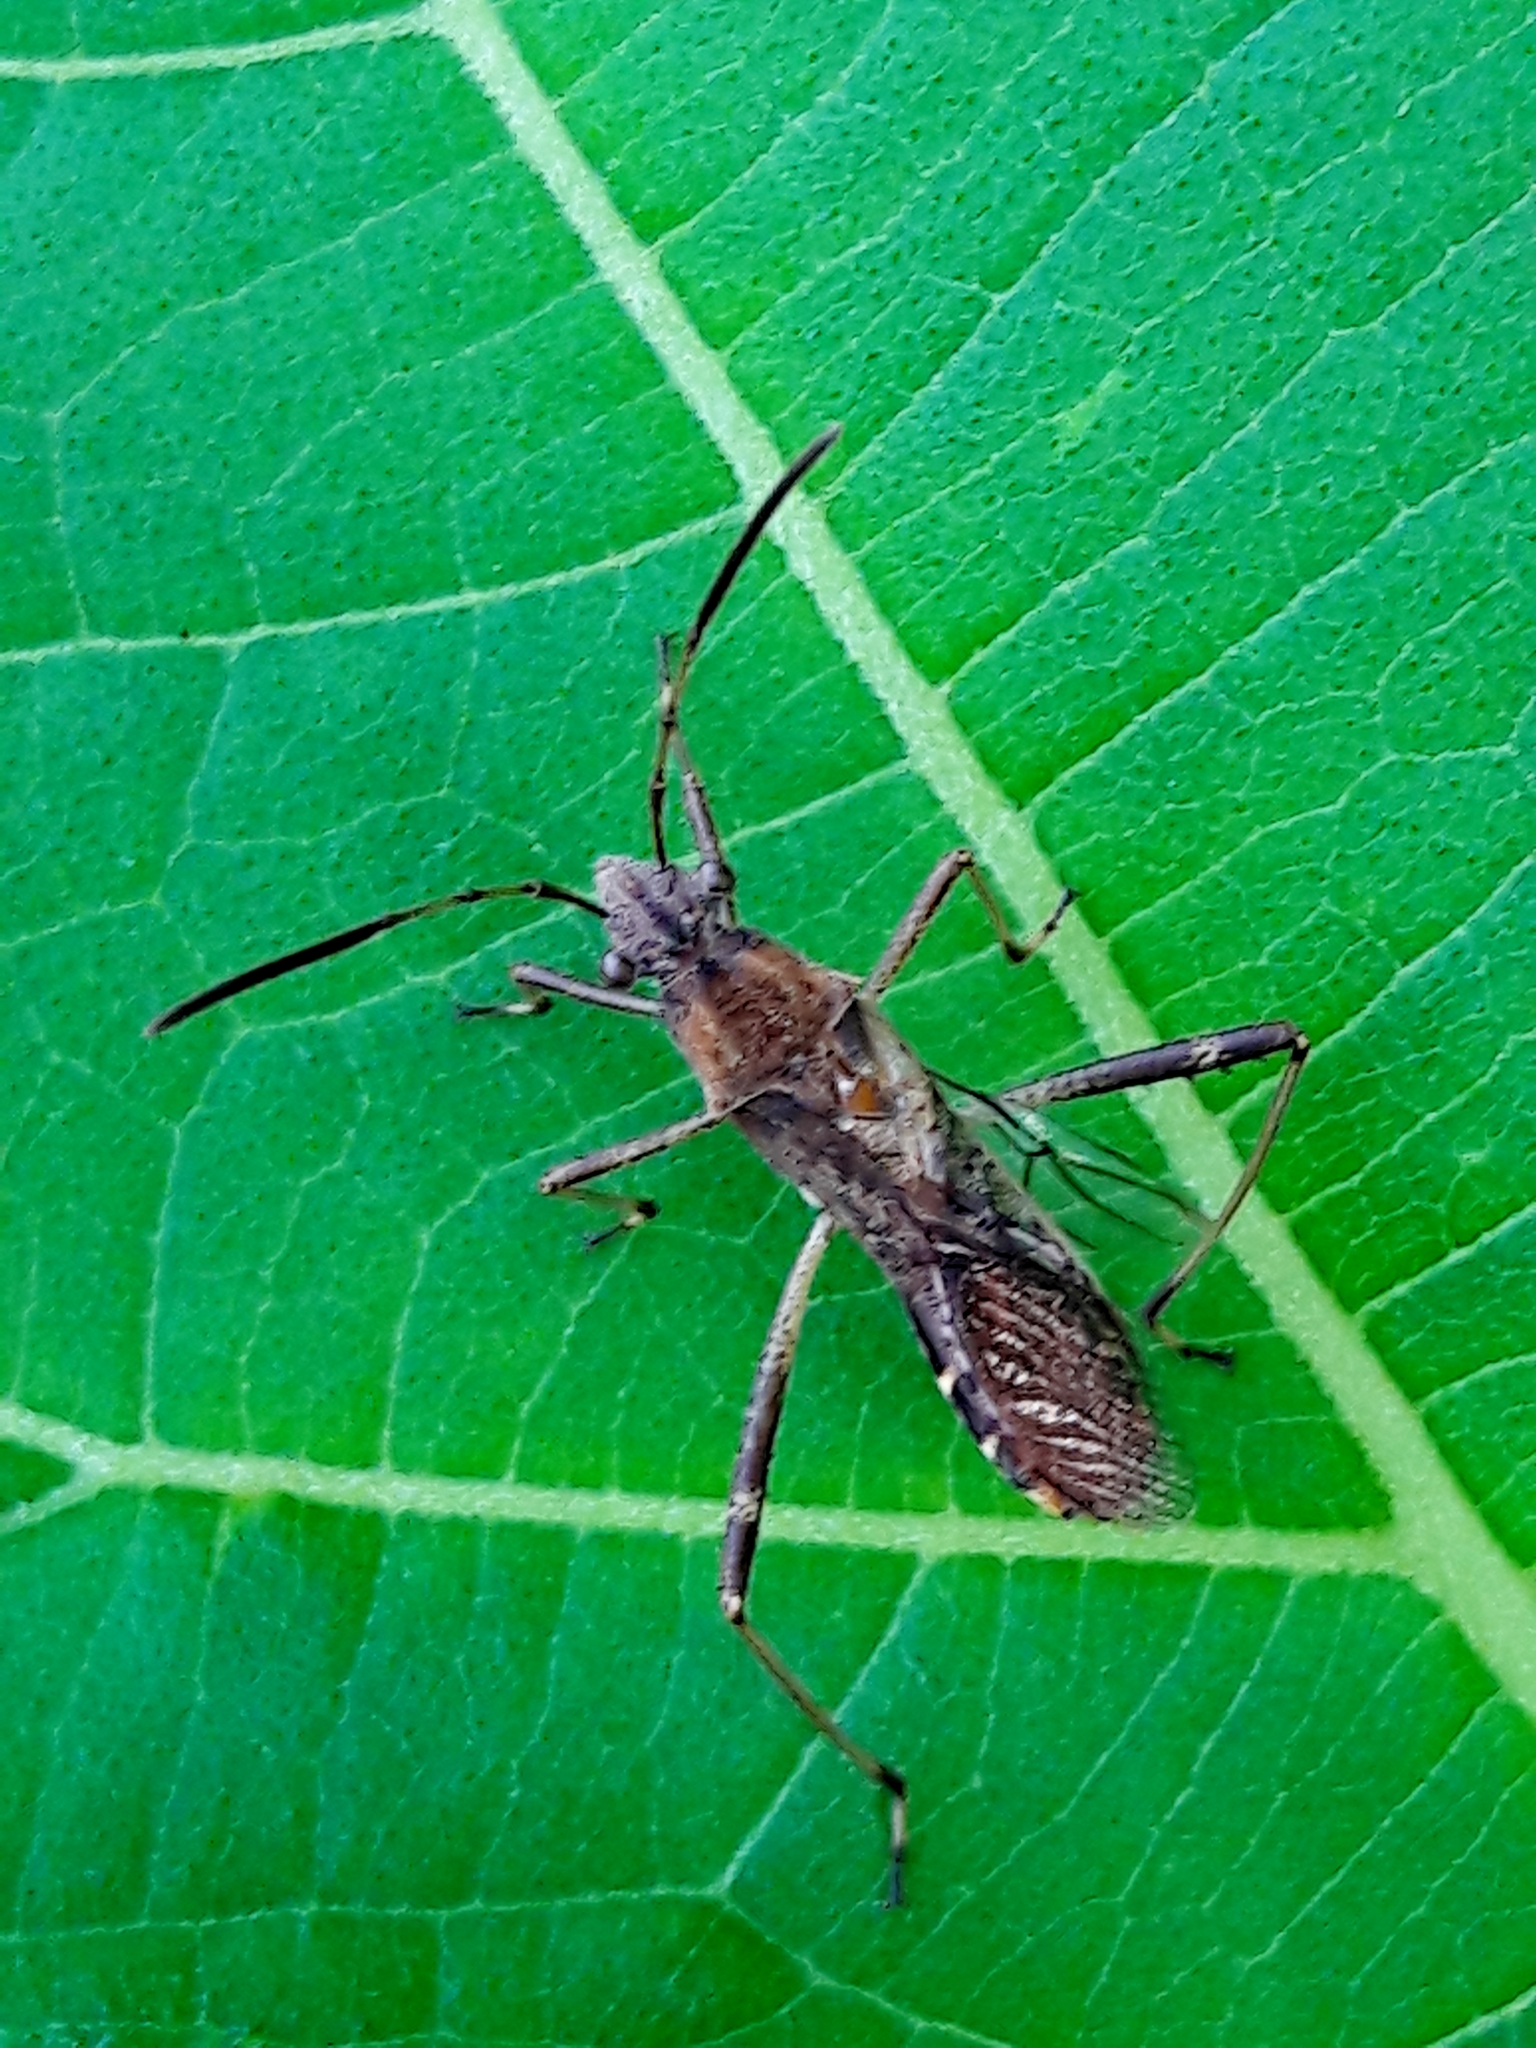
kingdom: Animalia
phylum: Arthropoda
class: Insecta
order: Hemiptera
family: Alydidae
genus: Neomegalotomus
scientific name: Neomegalotomus parvus
